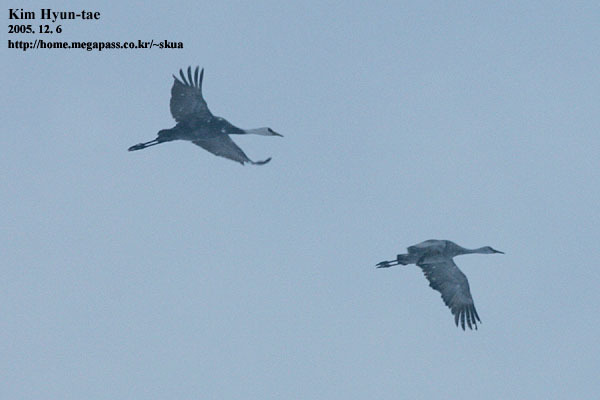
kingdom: Animalia
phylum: Chordata
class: Aves
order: Gruiformes
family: Gruidae
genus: Grus
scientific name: Grus canadensis
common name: Sandhill crane
